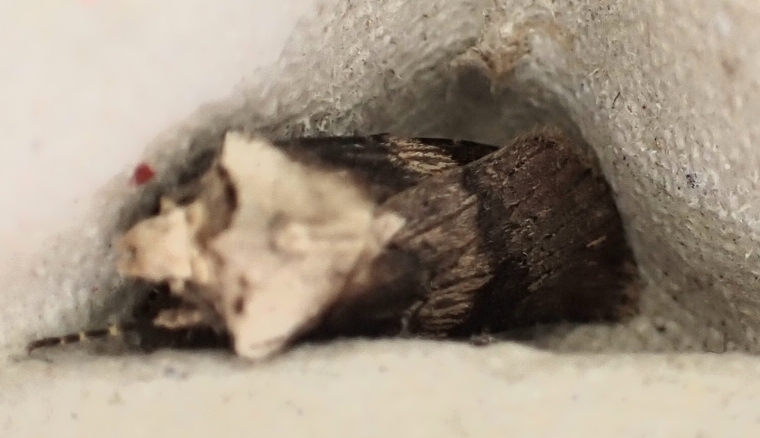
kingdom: Animalia
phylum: Arthropoda
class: Insecta
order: Lepidoptera
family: Noctuidae
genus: Agrotis
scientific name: Agrotis puta
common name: Shuttle-shaped dart
